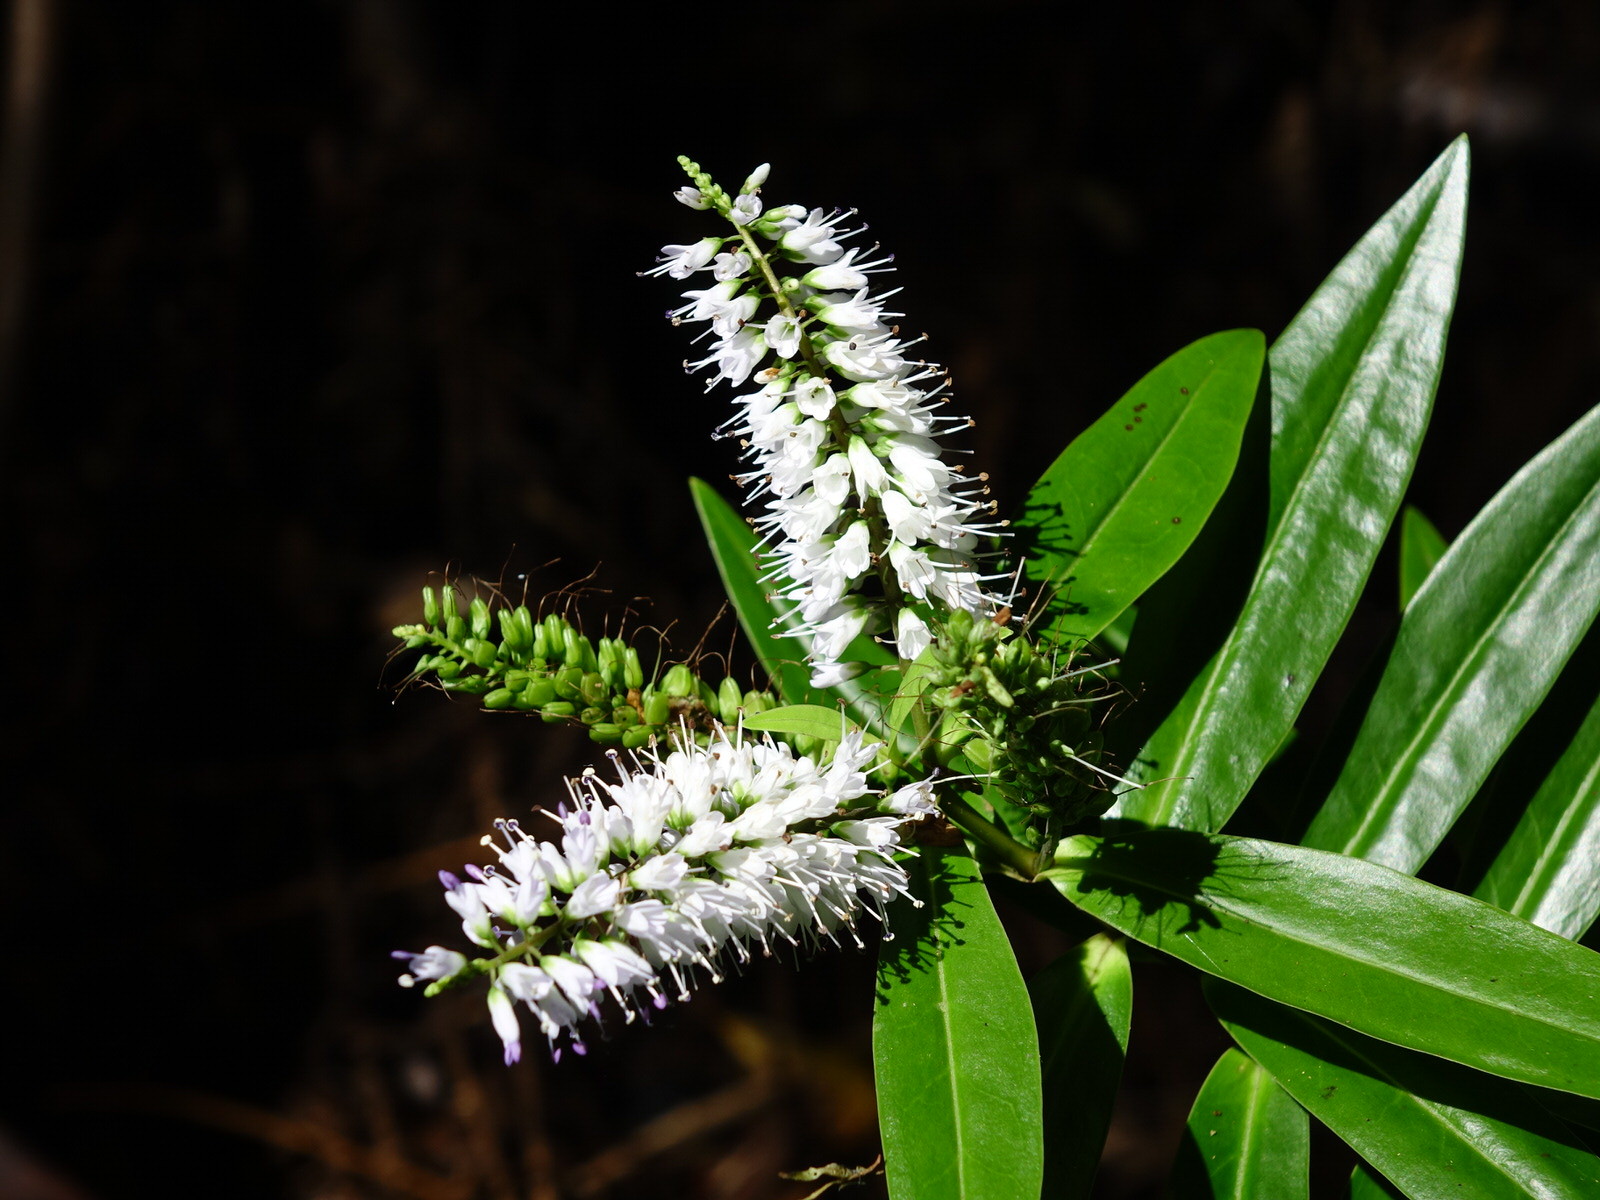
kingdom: Plantae
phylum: Tracheophyta
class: Magnoliopsida
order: Lamiales
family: Plantaginaceae
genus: Veronica
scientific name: Veronica macrocarpa
